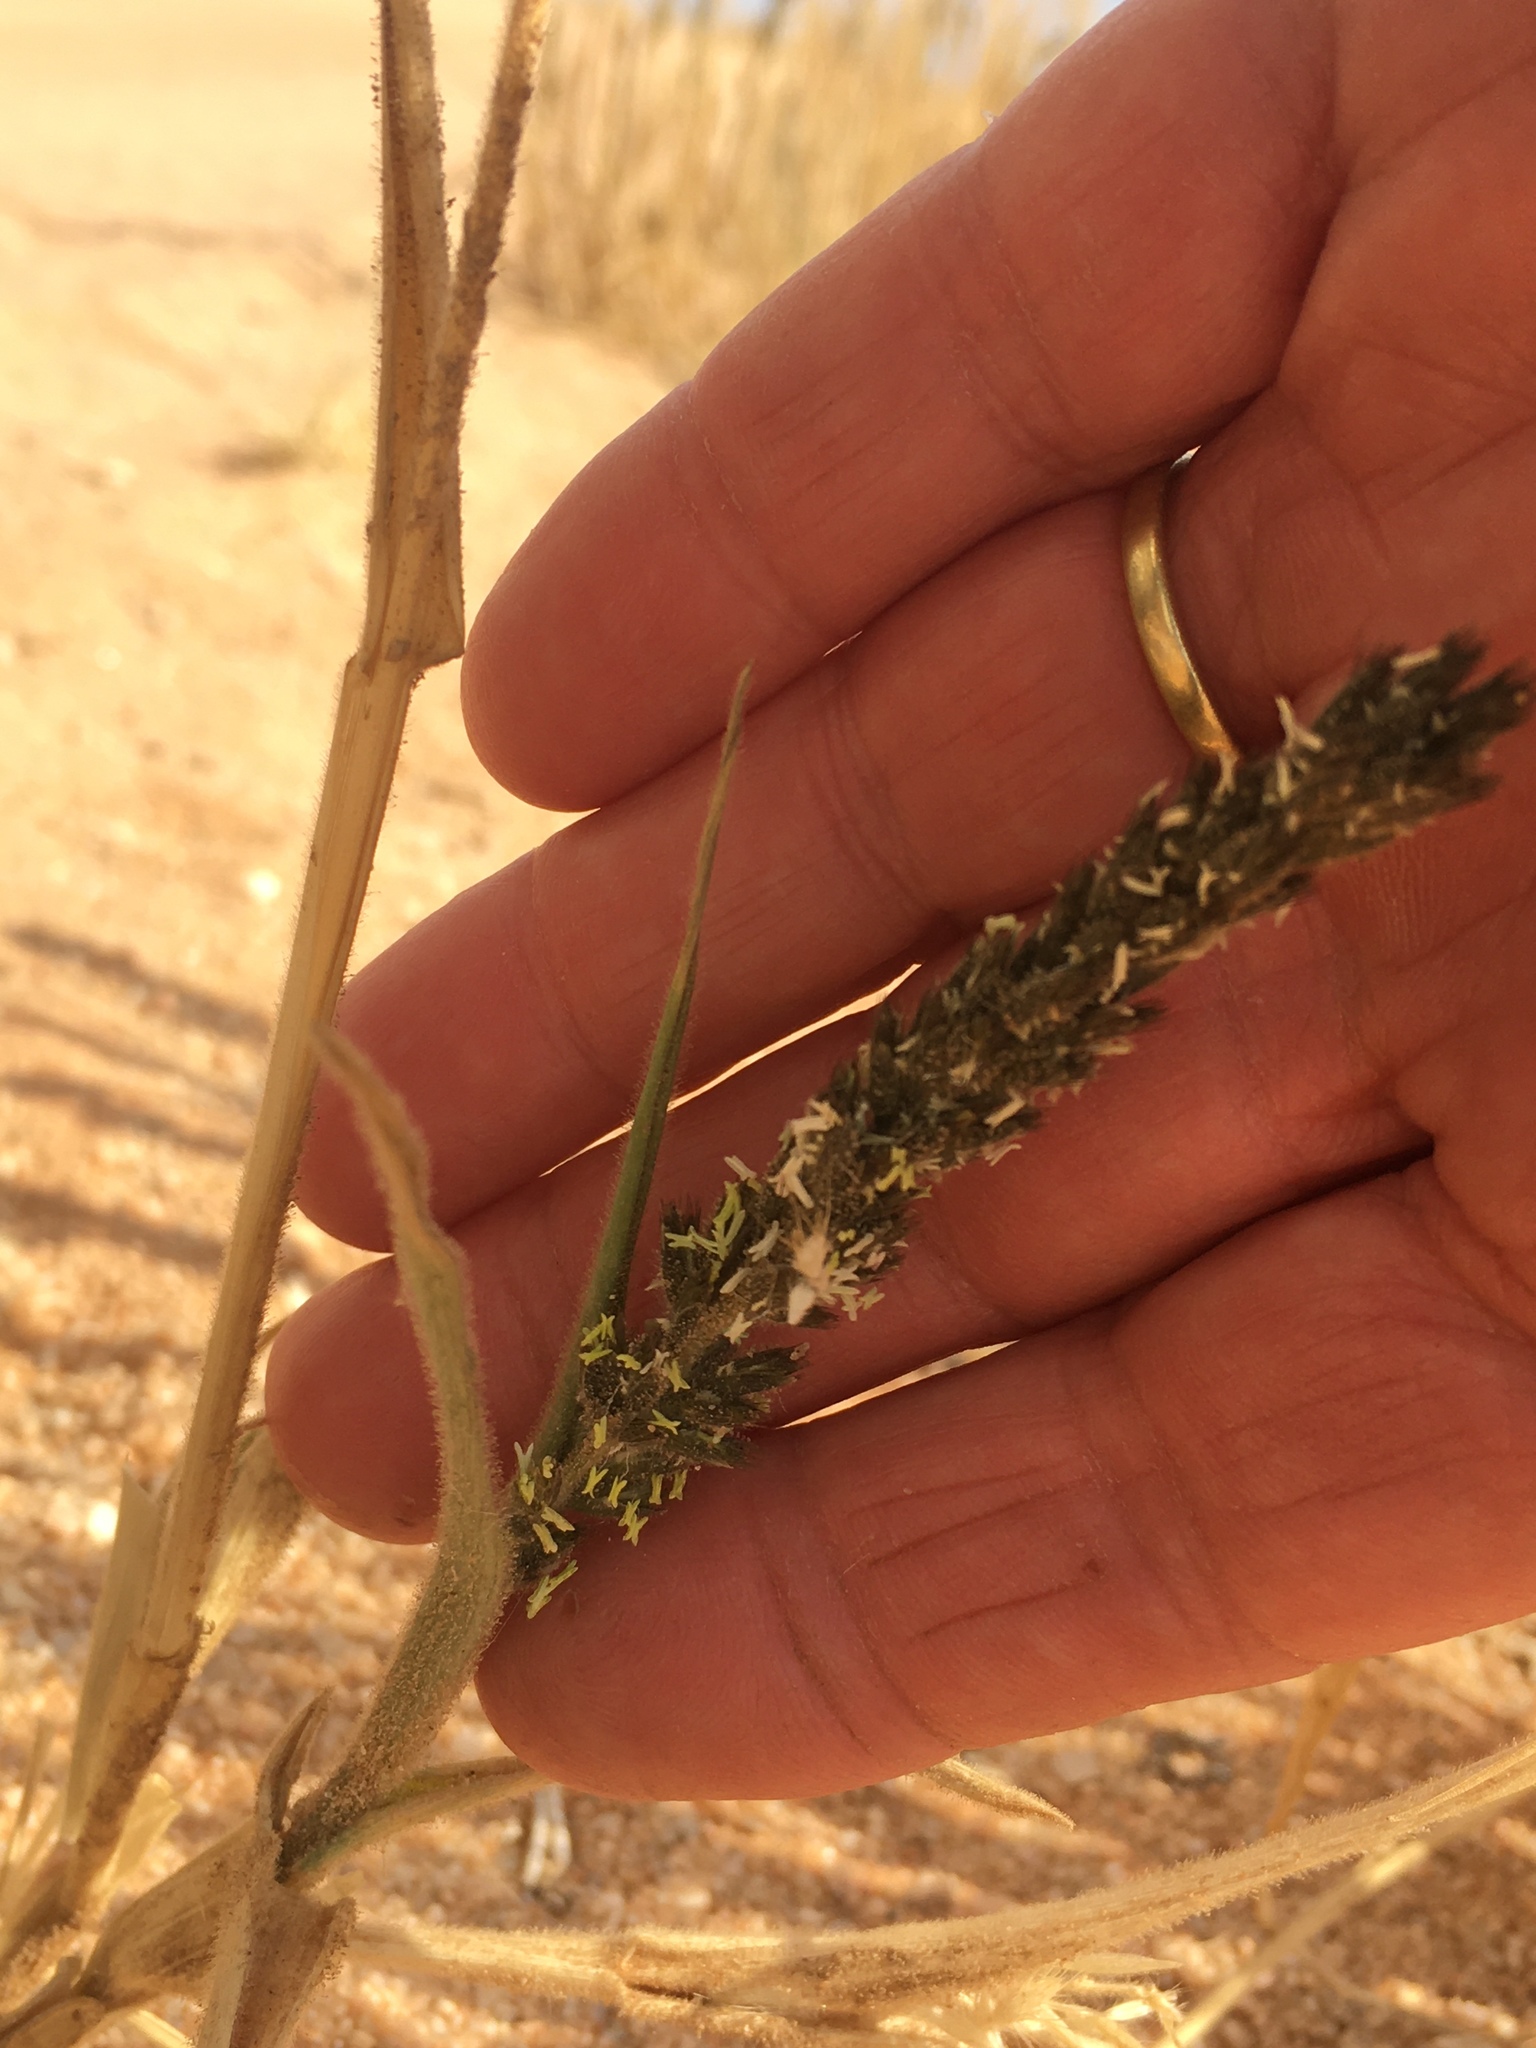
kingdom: Plantae
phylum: Tracheophyta
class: Liliopsida
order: Poales
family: Poaceae
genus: Schmidtia
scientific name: Schmidtia kalahariensis
